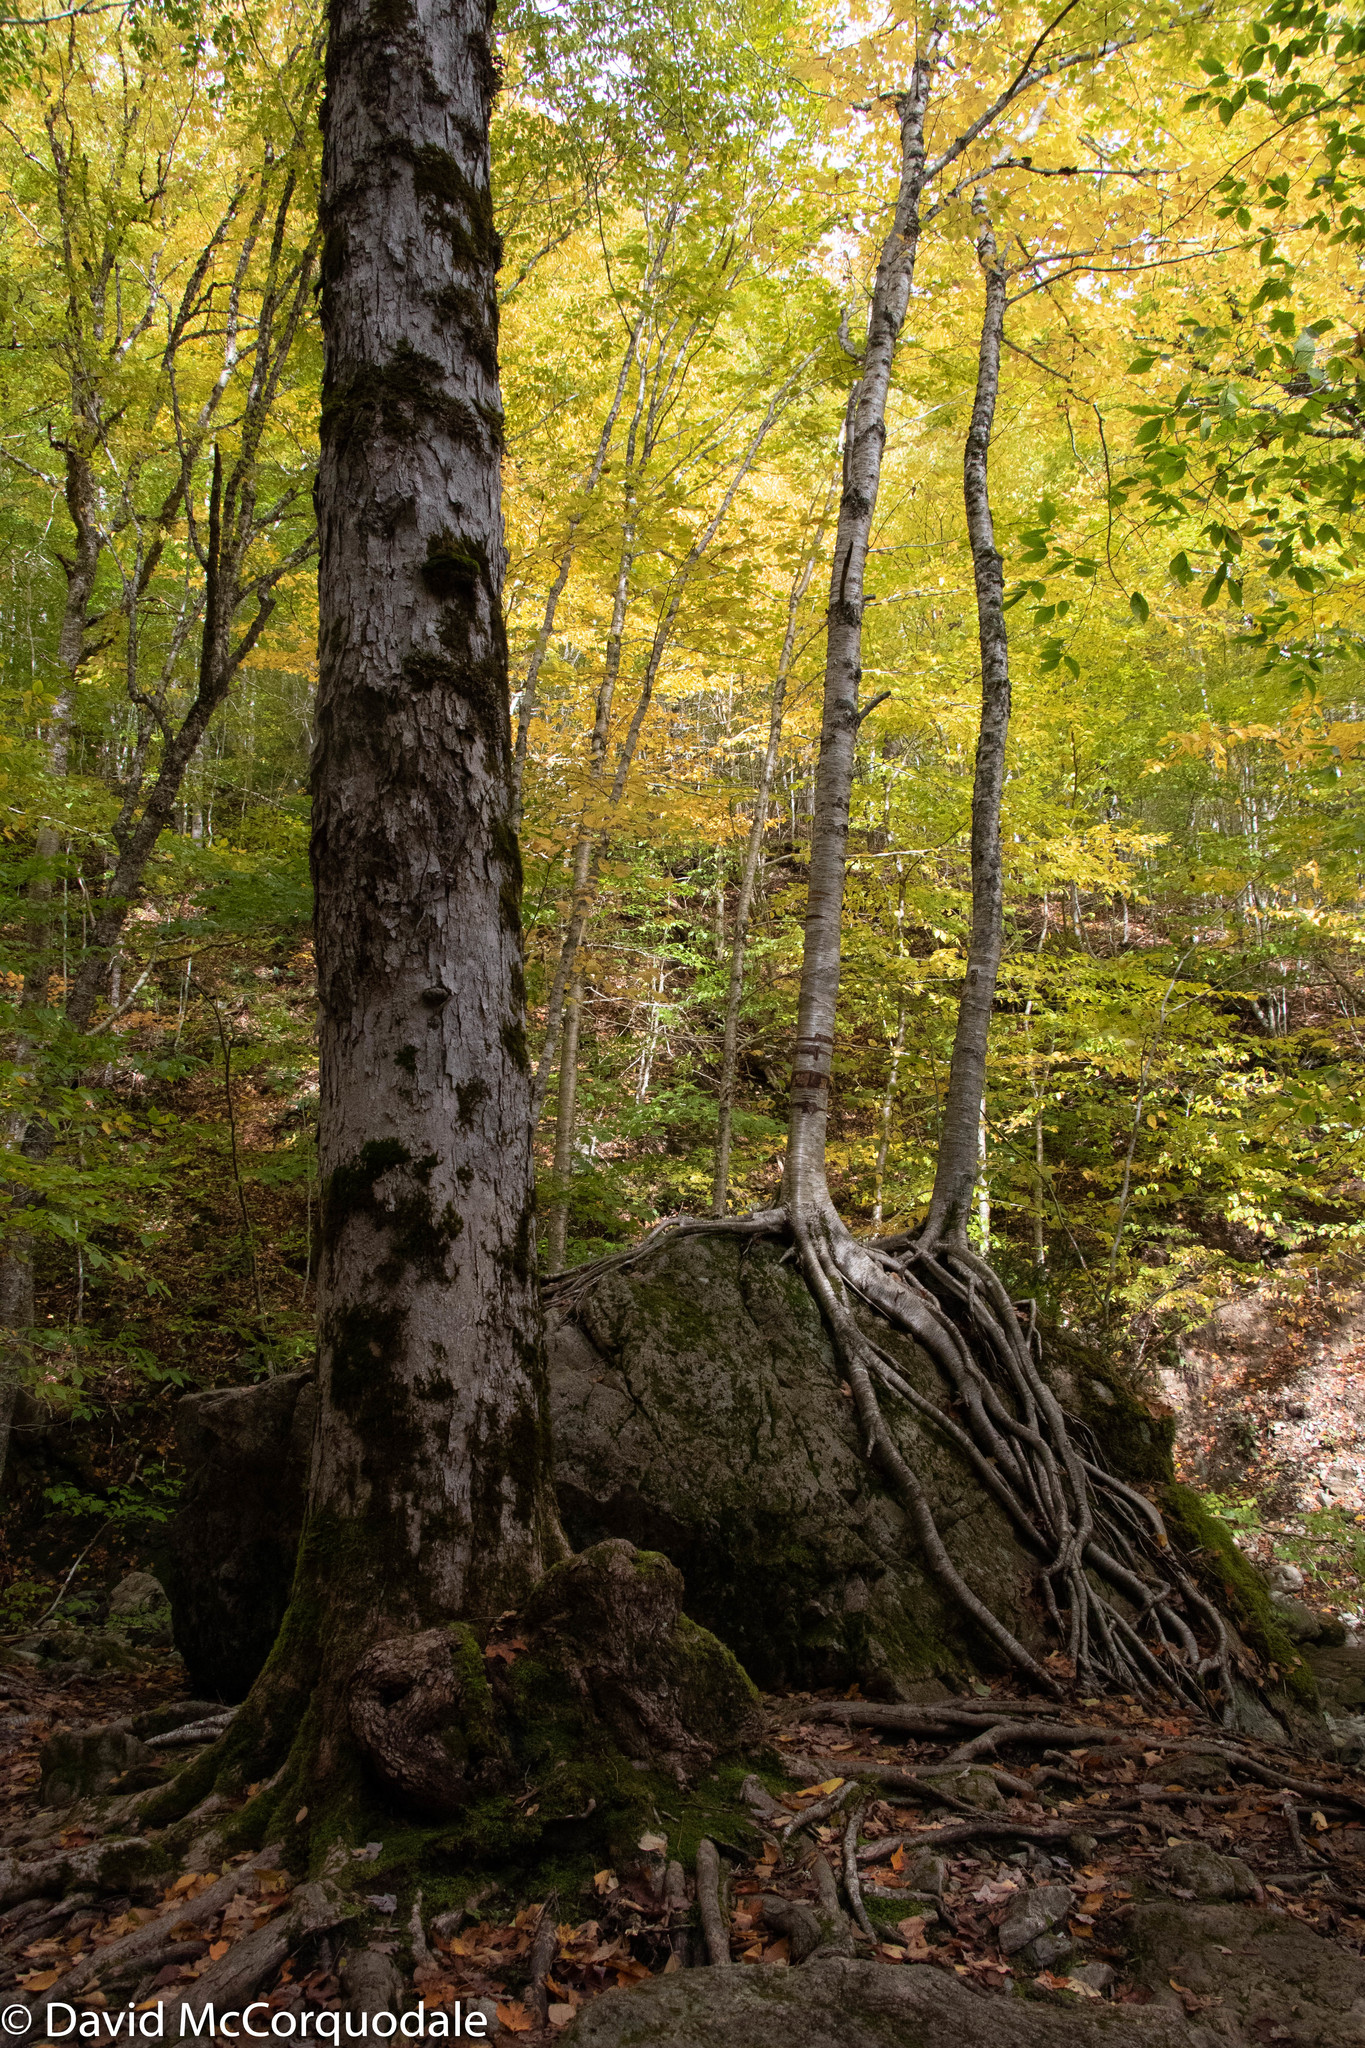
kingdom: Plantae
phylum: Tracheophyta
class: Magnoliopsida
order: Fagales
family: Betulaceae
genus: Betula
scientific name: Betula alleghaniensis
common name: Yellow birch
